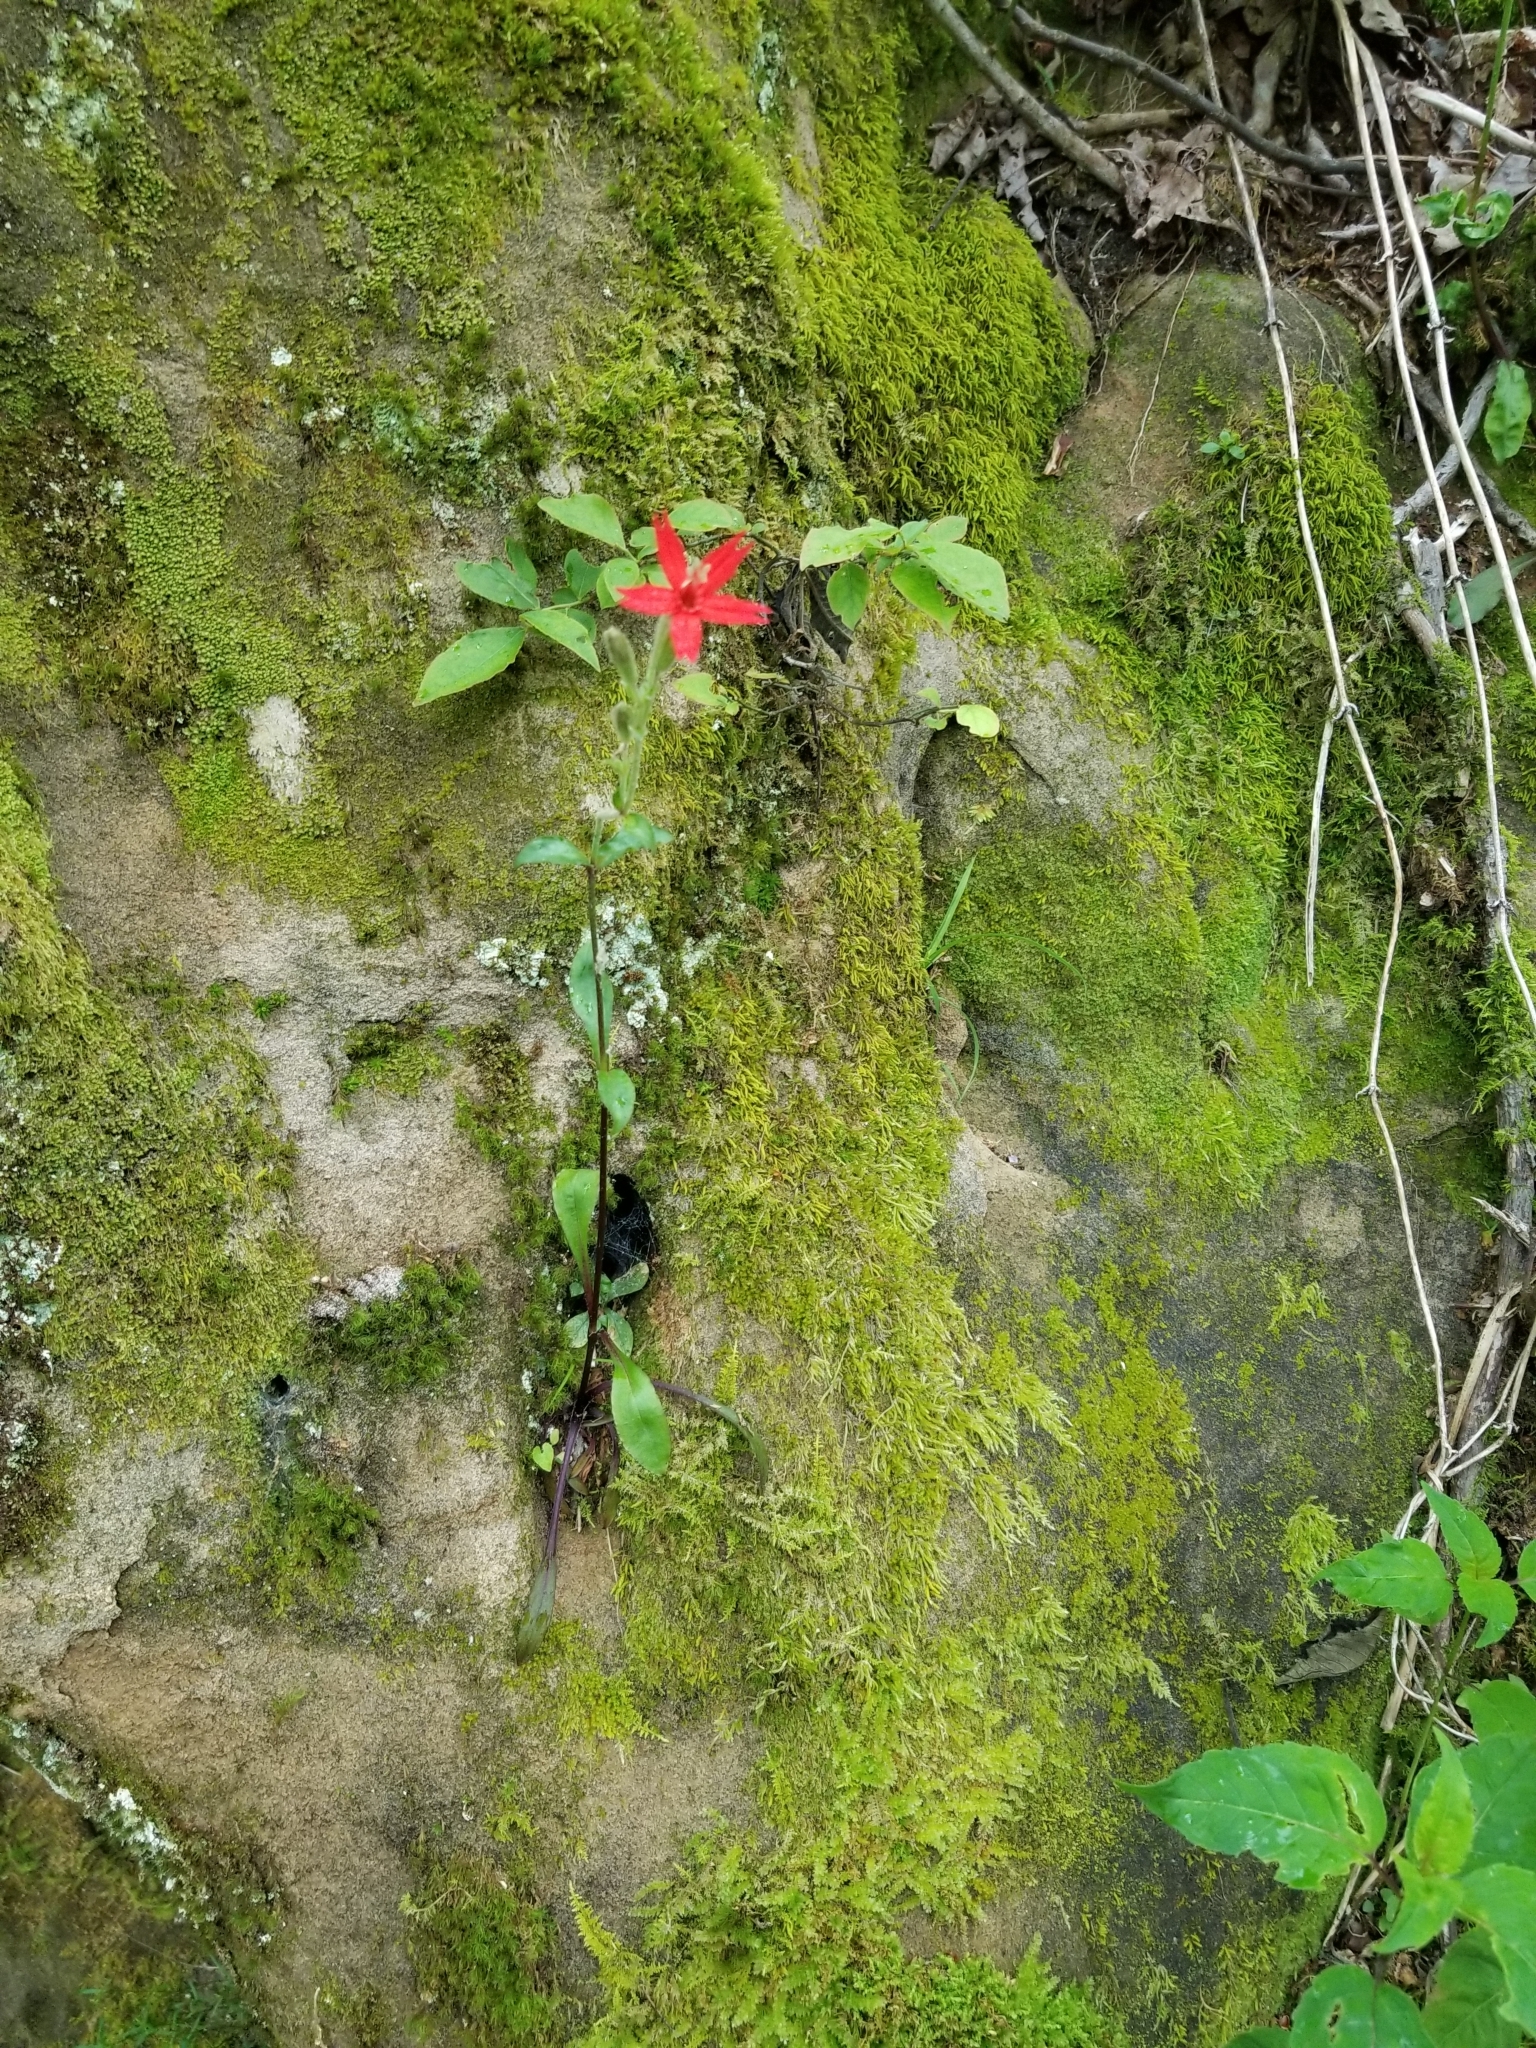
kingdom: Plantae
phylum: Tracheophyta
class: Magnoliopsida
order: Caryophyllales
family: Caryophyllaceae
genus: Silene
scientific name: Silene virginica
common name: Fire-pink
